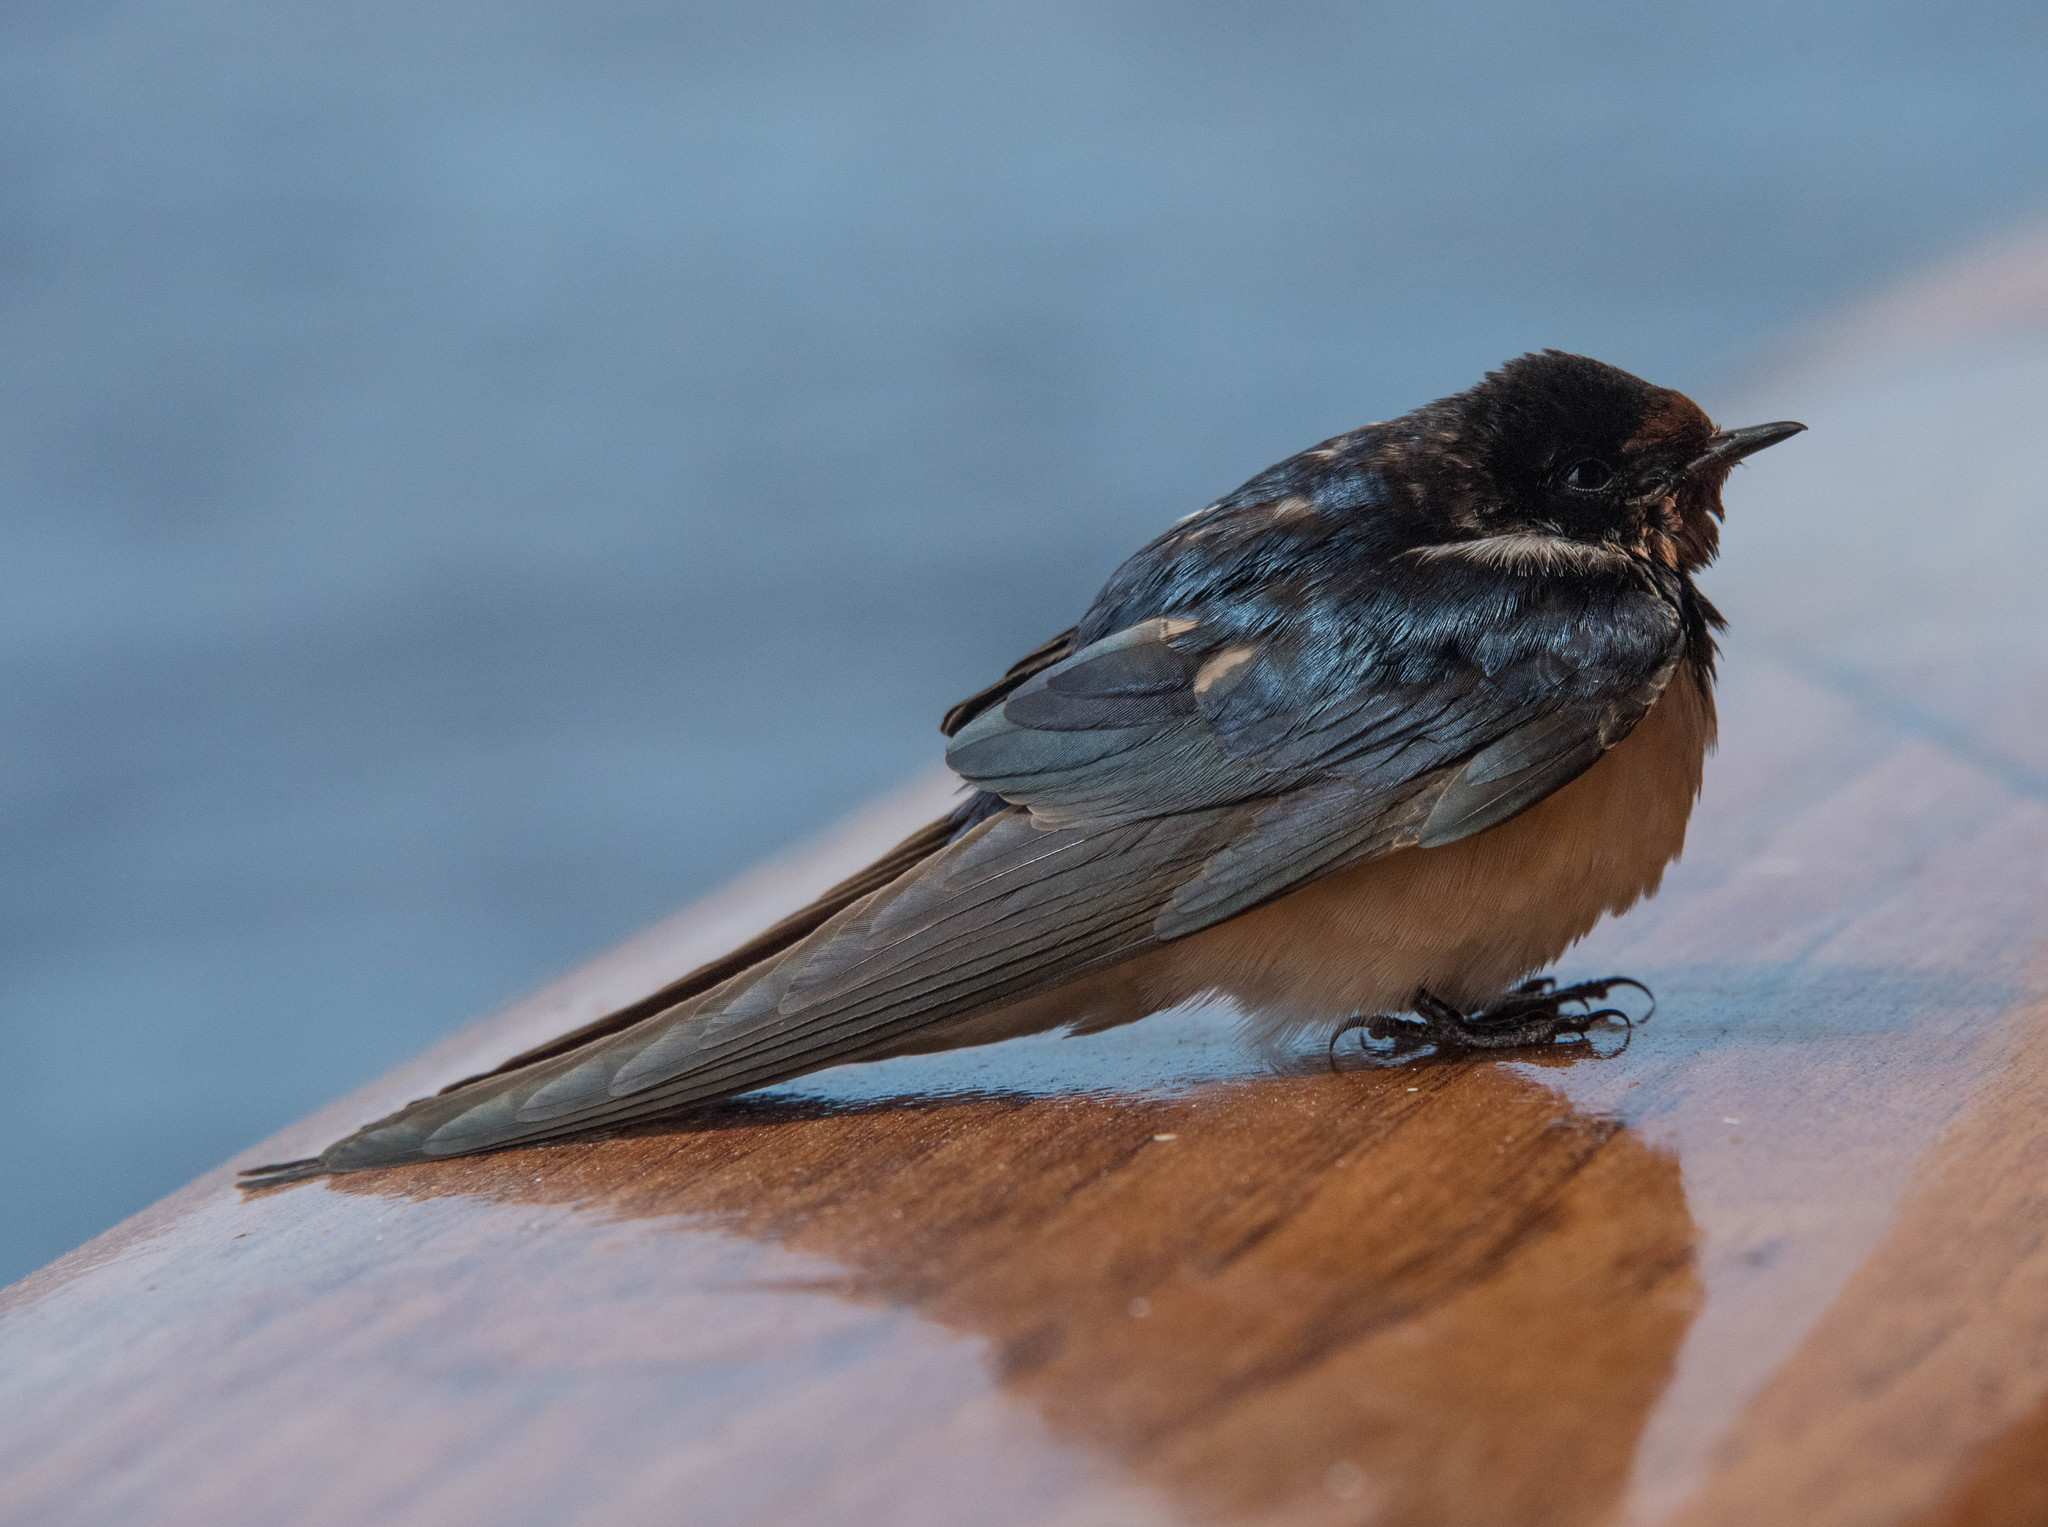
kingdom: Animalia
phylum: Chordata
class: Aves
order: Passeriformes
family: Hirundinidae
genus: Hirundo
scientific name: Hirundo rustica
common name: Barn swallow
